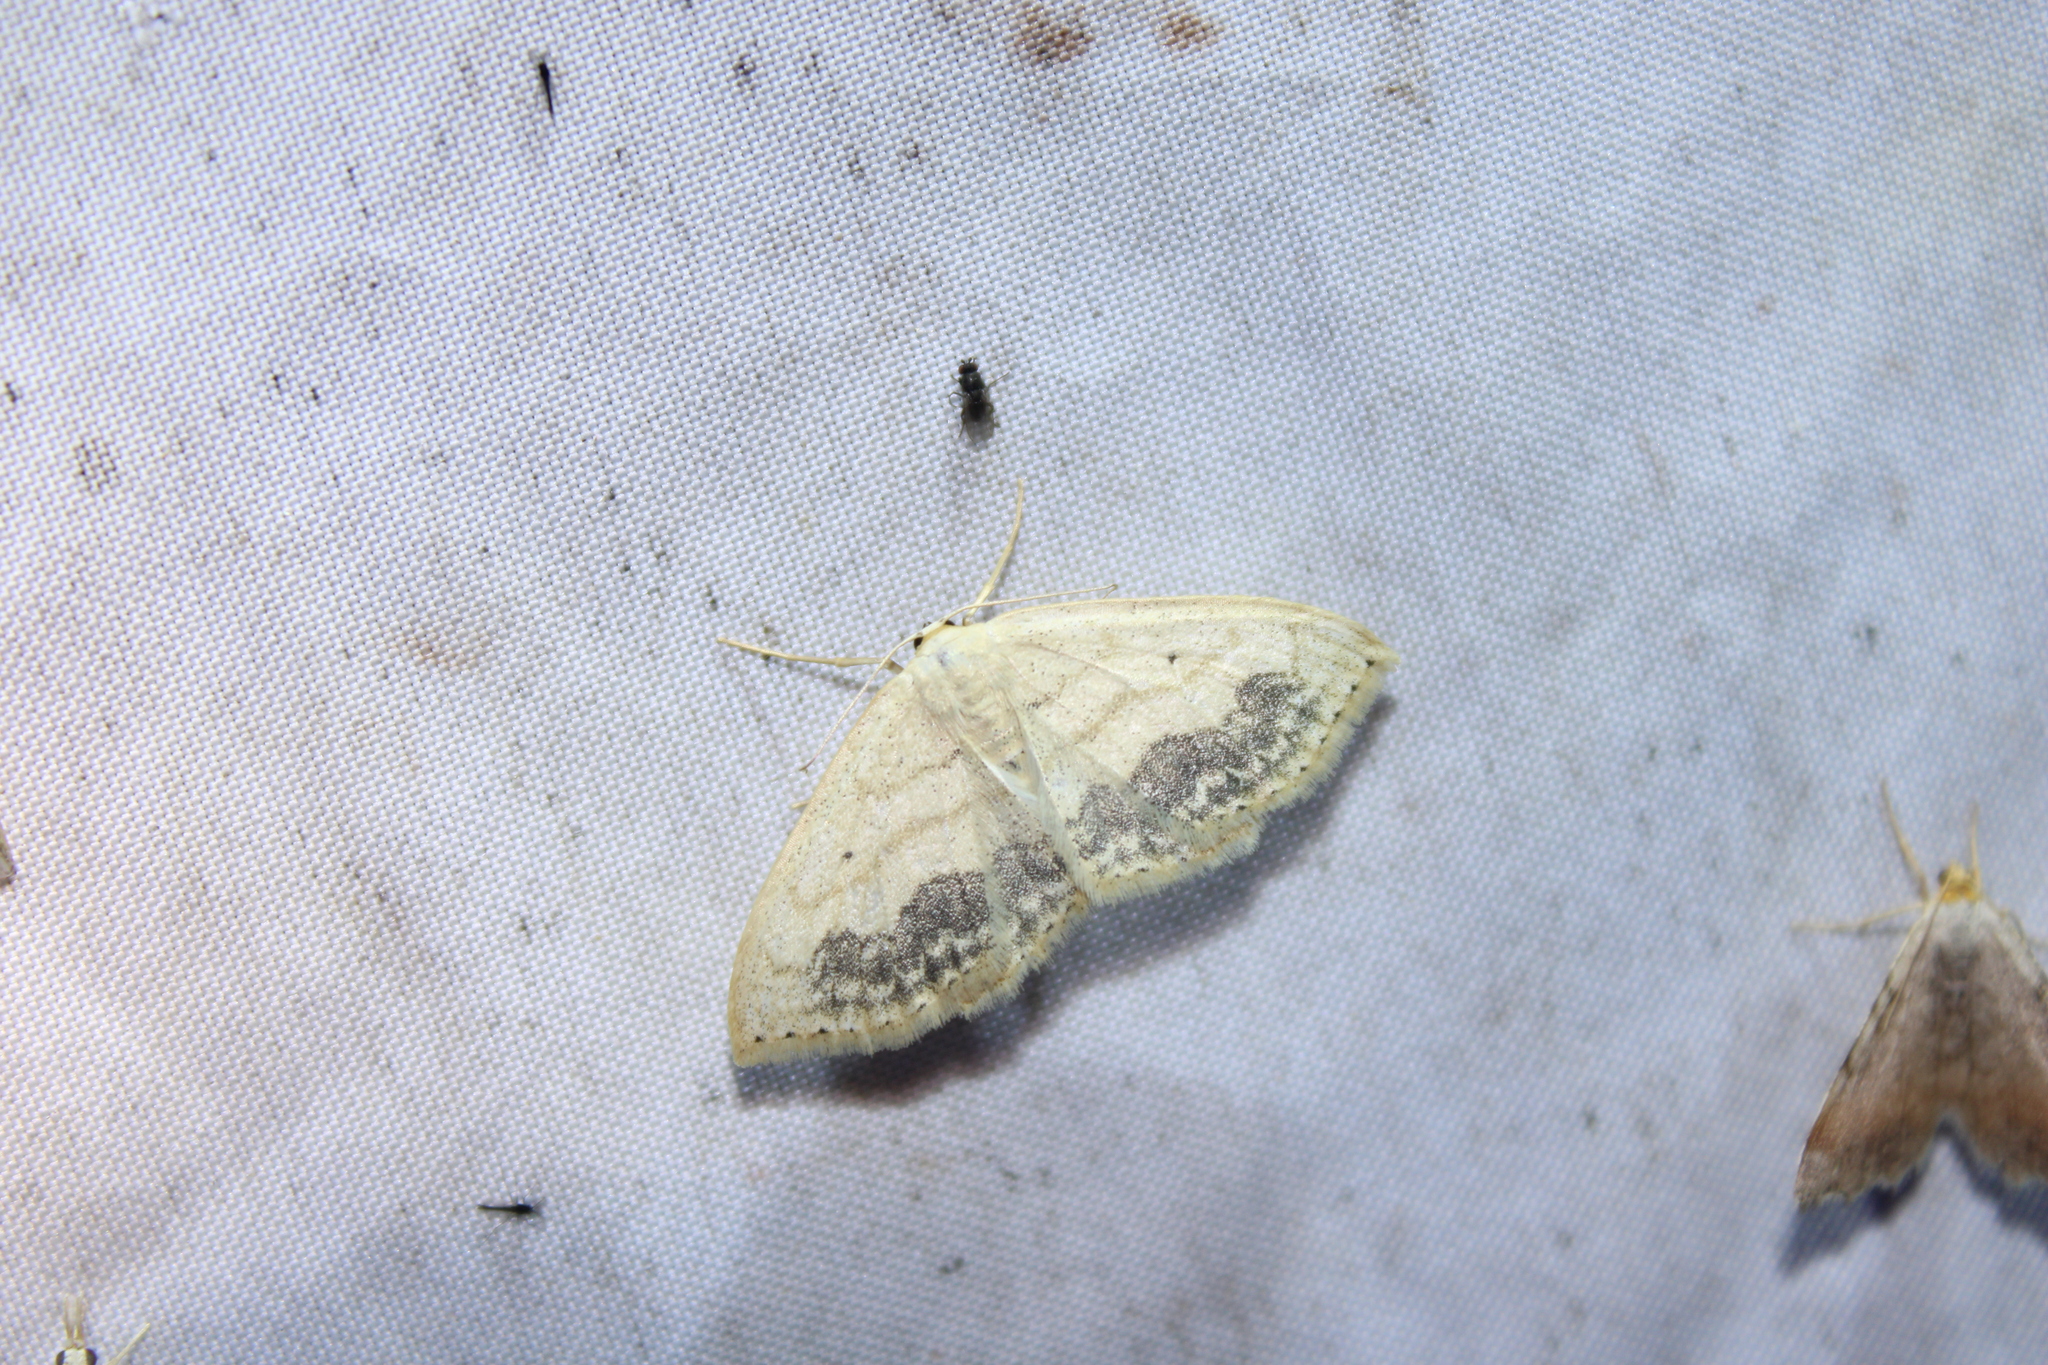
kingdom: Animalia
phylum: Arthropoda
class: Insecta
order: Lepidoptera
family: Geometridae
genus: Scopula
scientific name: Scopula limboundata
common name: Large lace border
